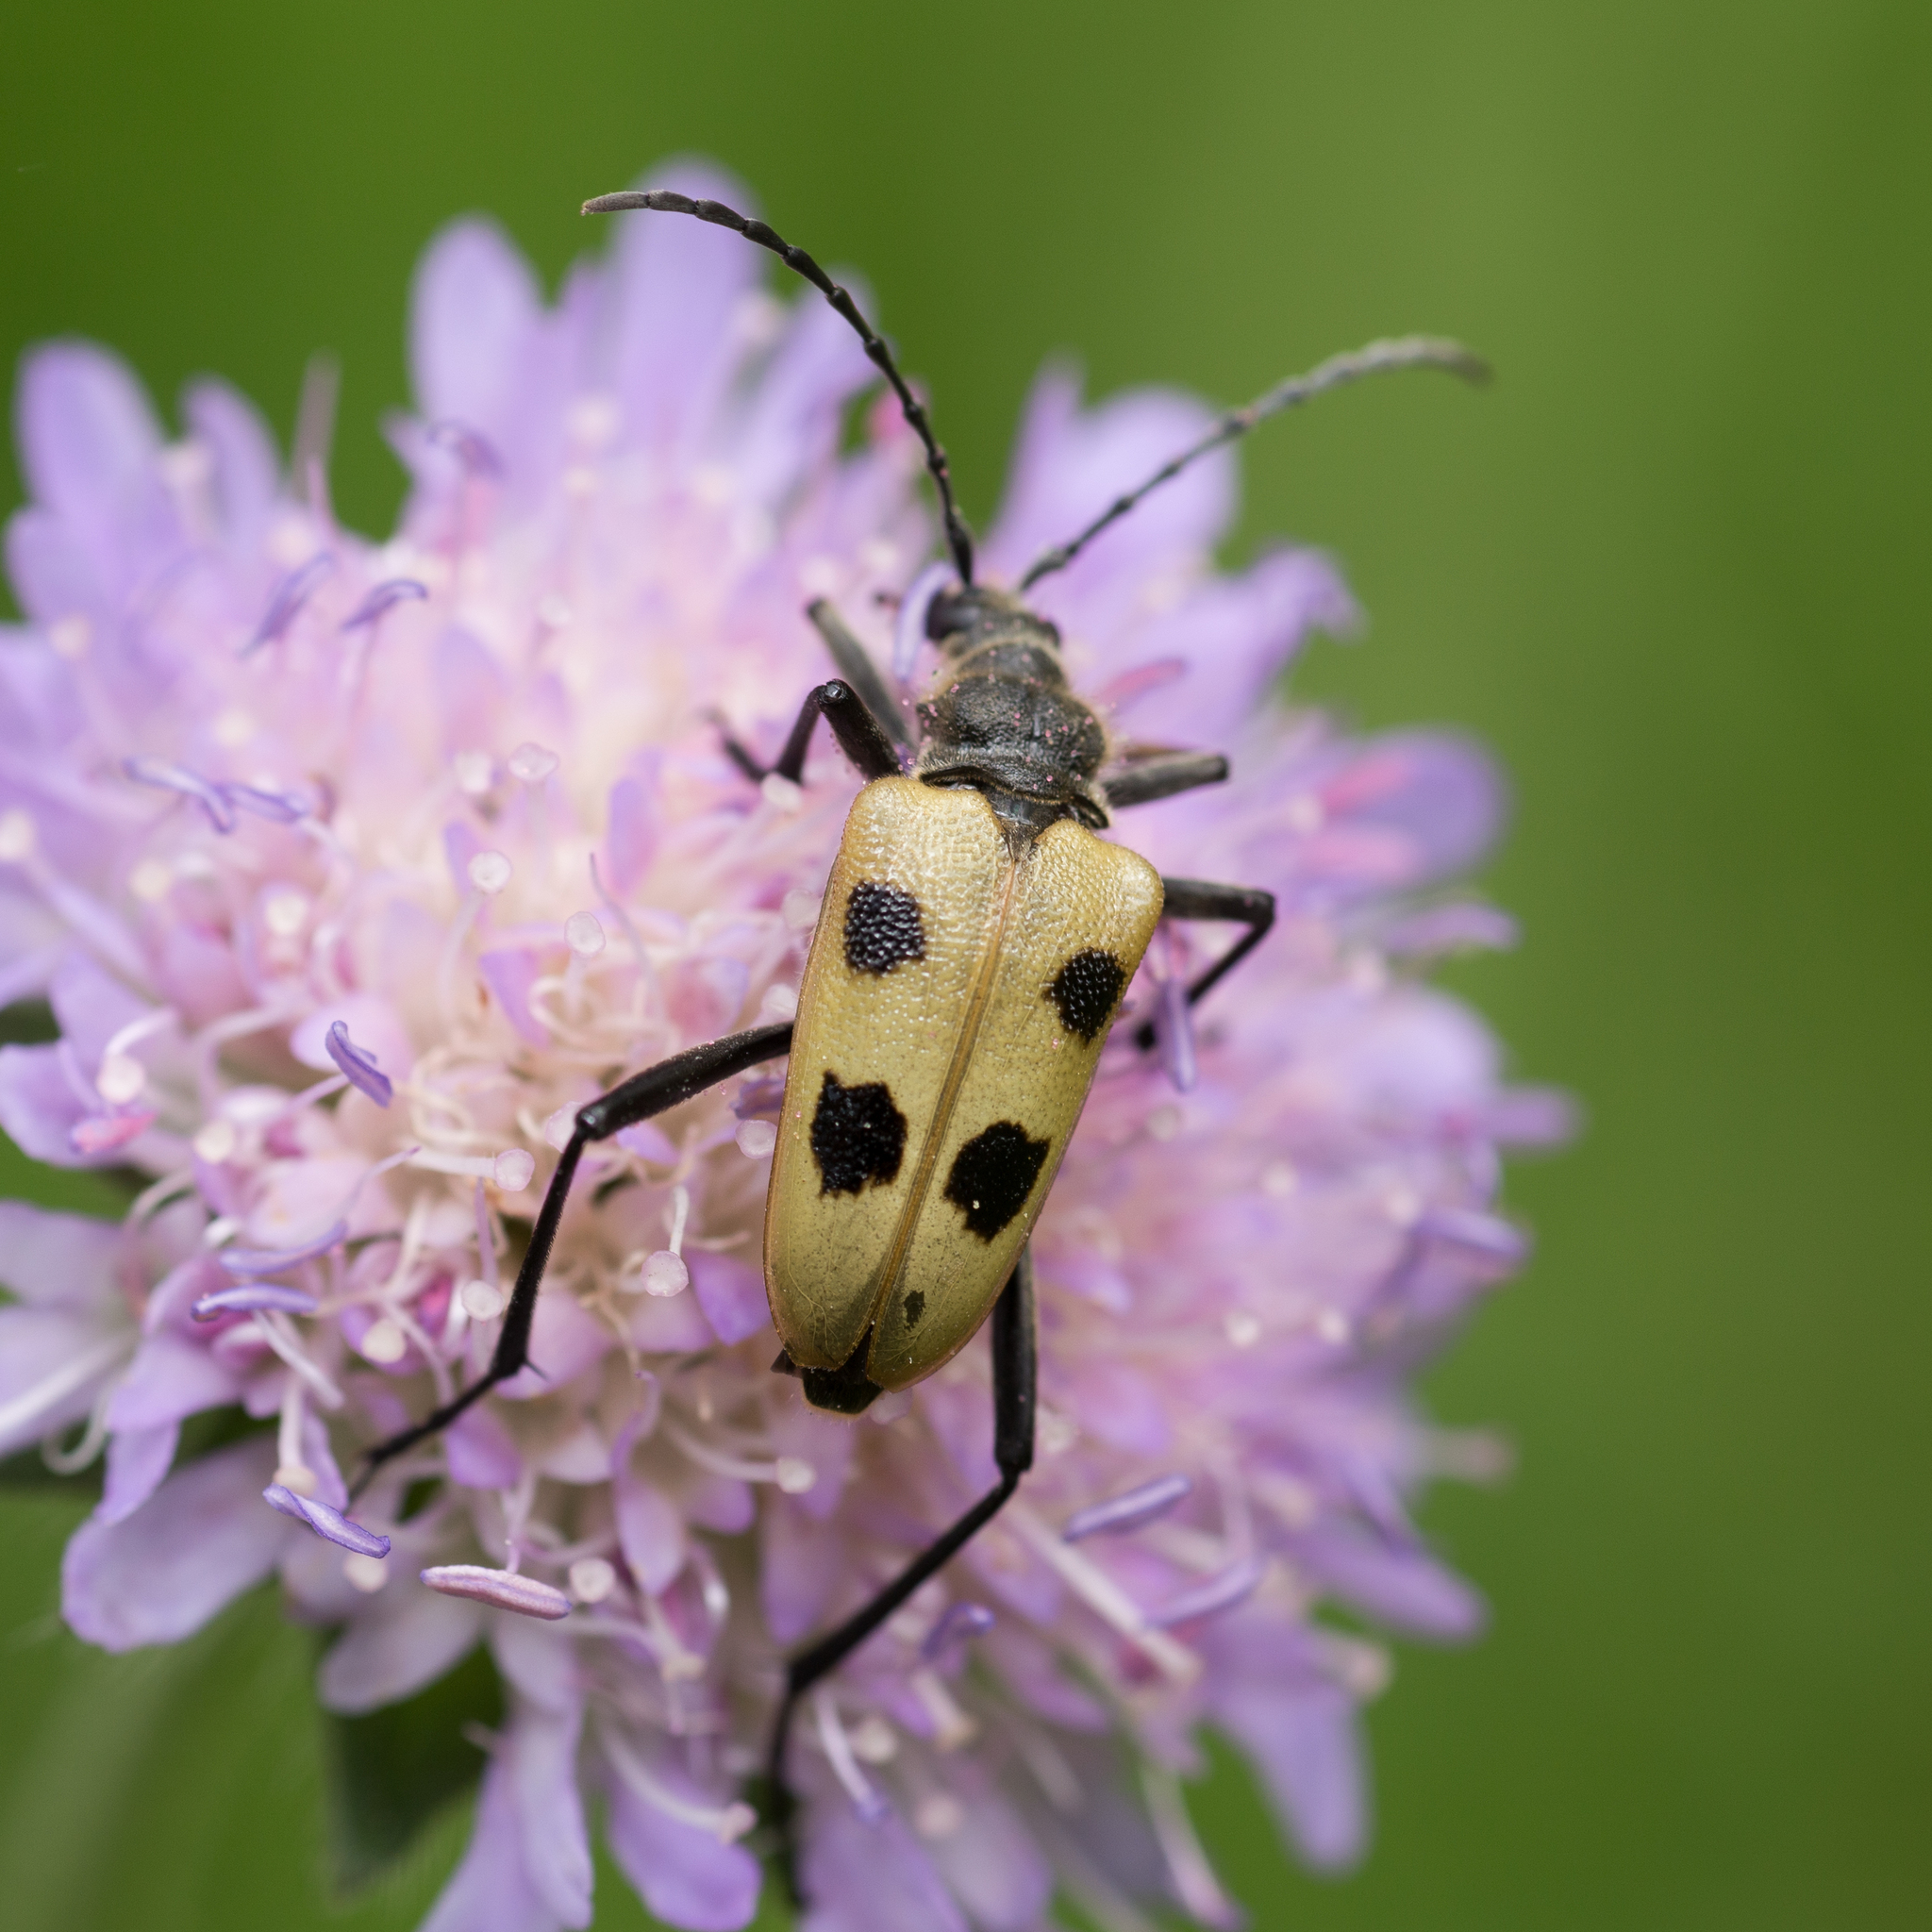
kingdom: Animalia
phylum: Arthropoda
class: Insecta
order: Coleoptera
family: Cerambycidae
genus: Pachyta
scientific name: Pachyta quadrimaculata
